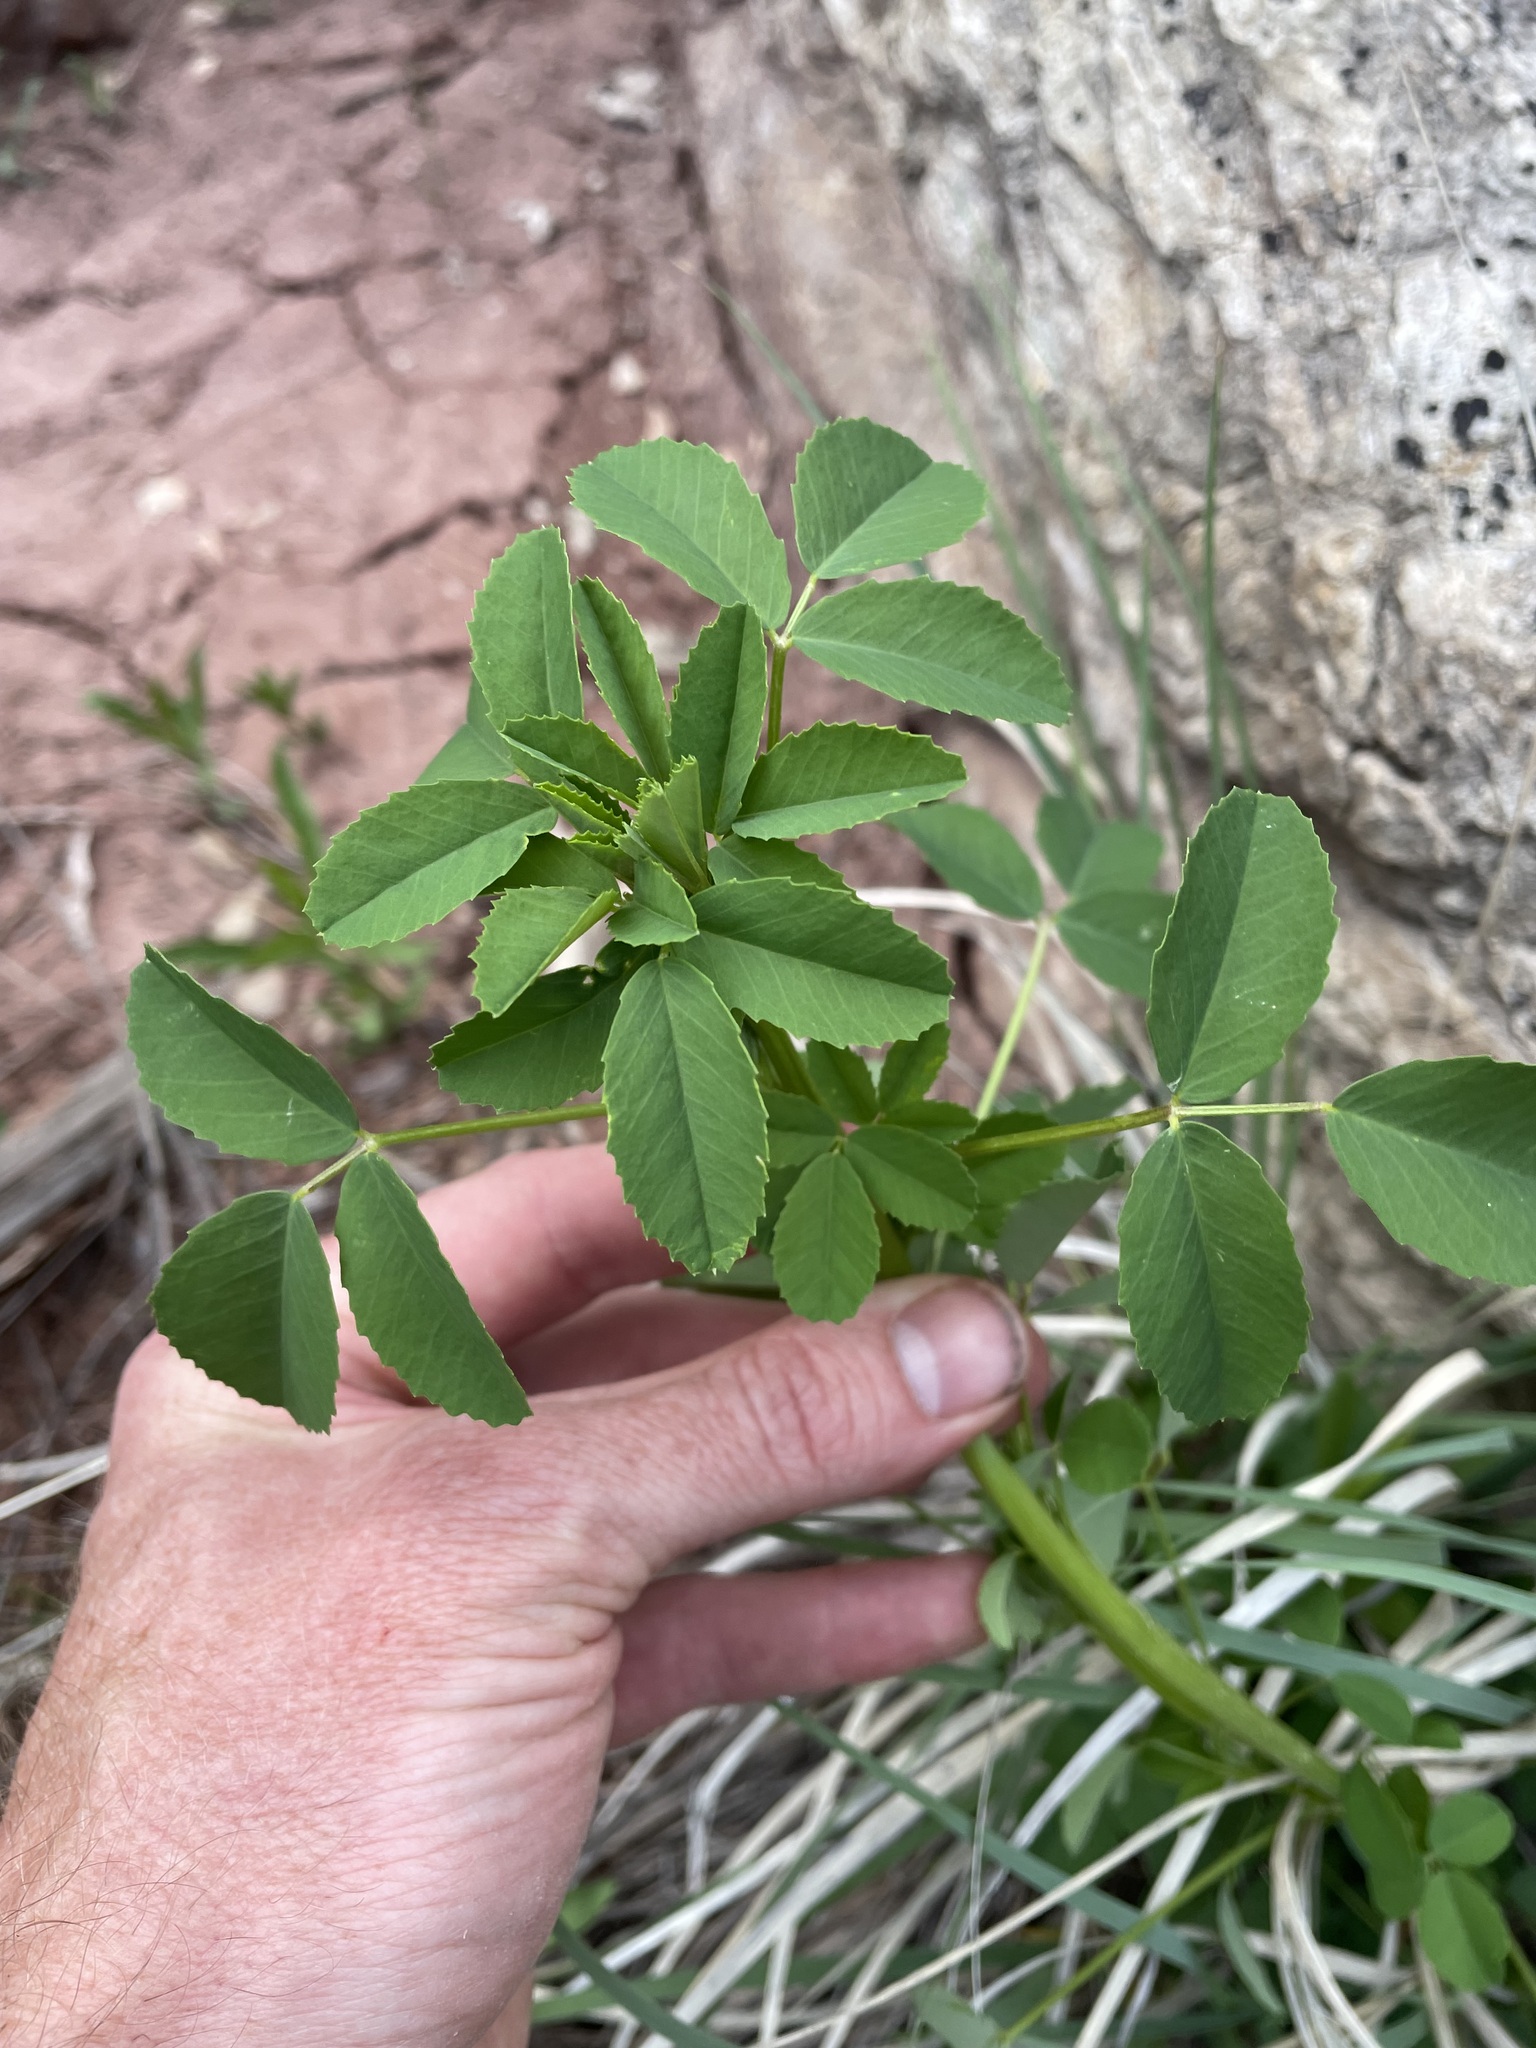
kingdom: Plantae
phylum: Tracheophyta
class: Magnoliopsida
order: Fabales
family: Fabaceae
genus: Medicago
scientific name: Medicago sativa
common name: Alfalfa
